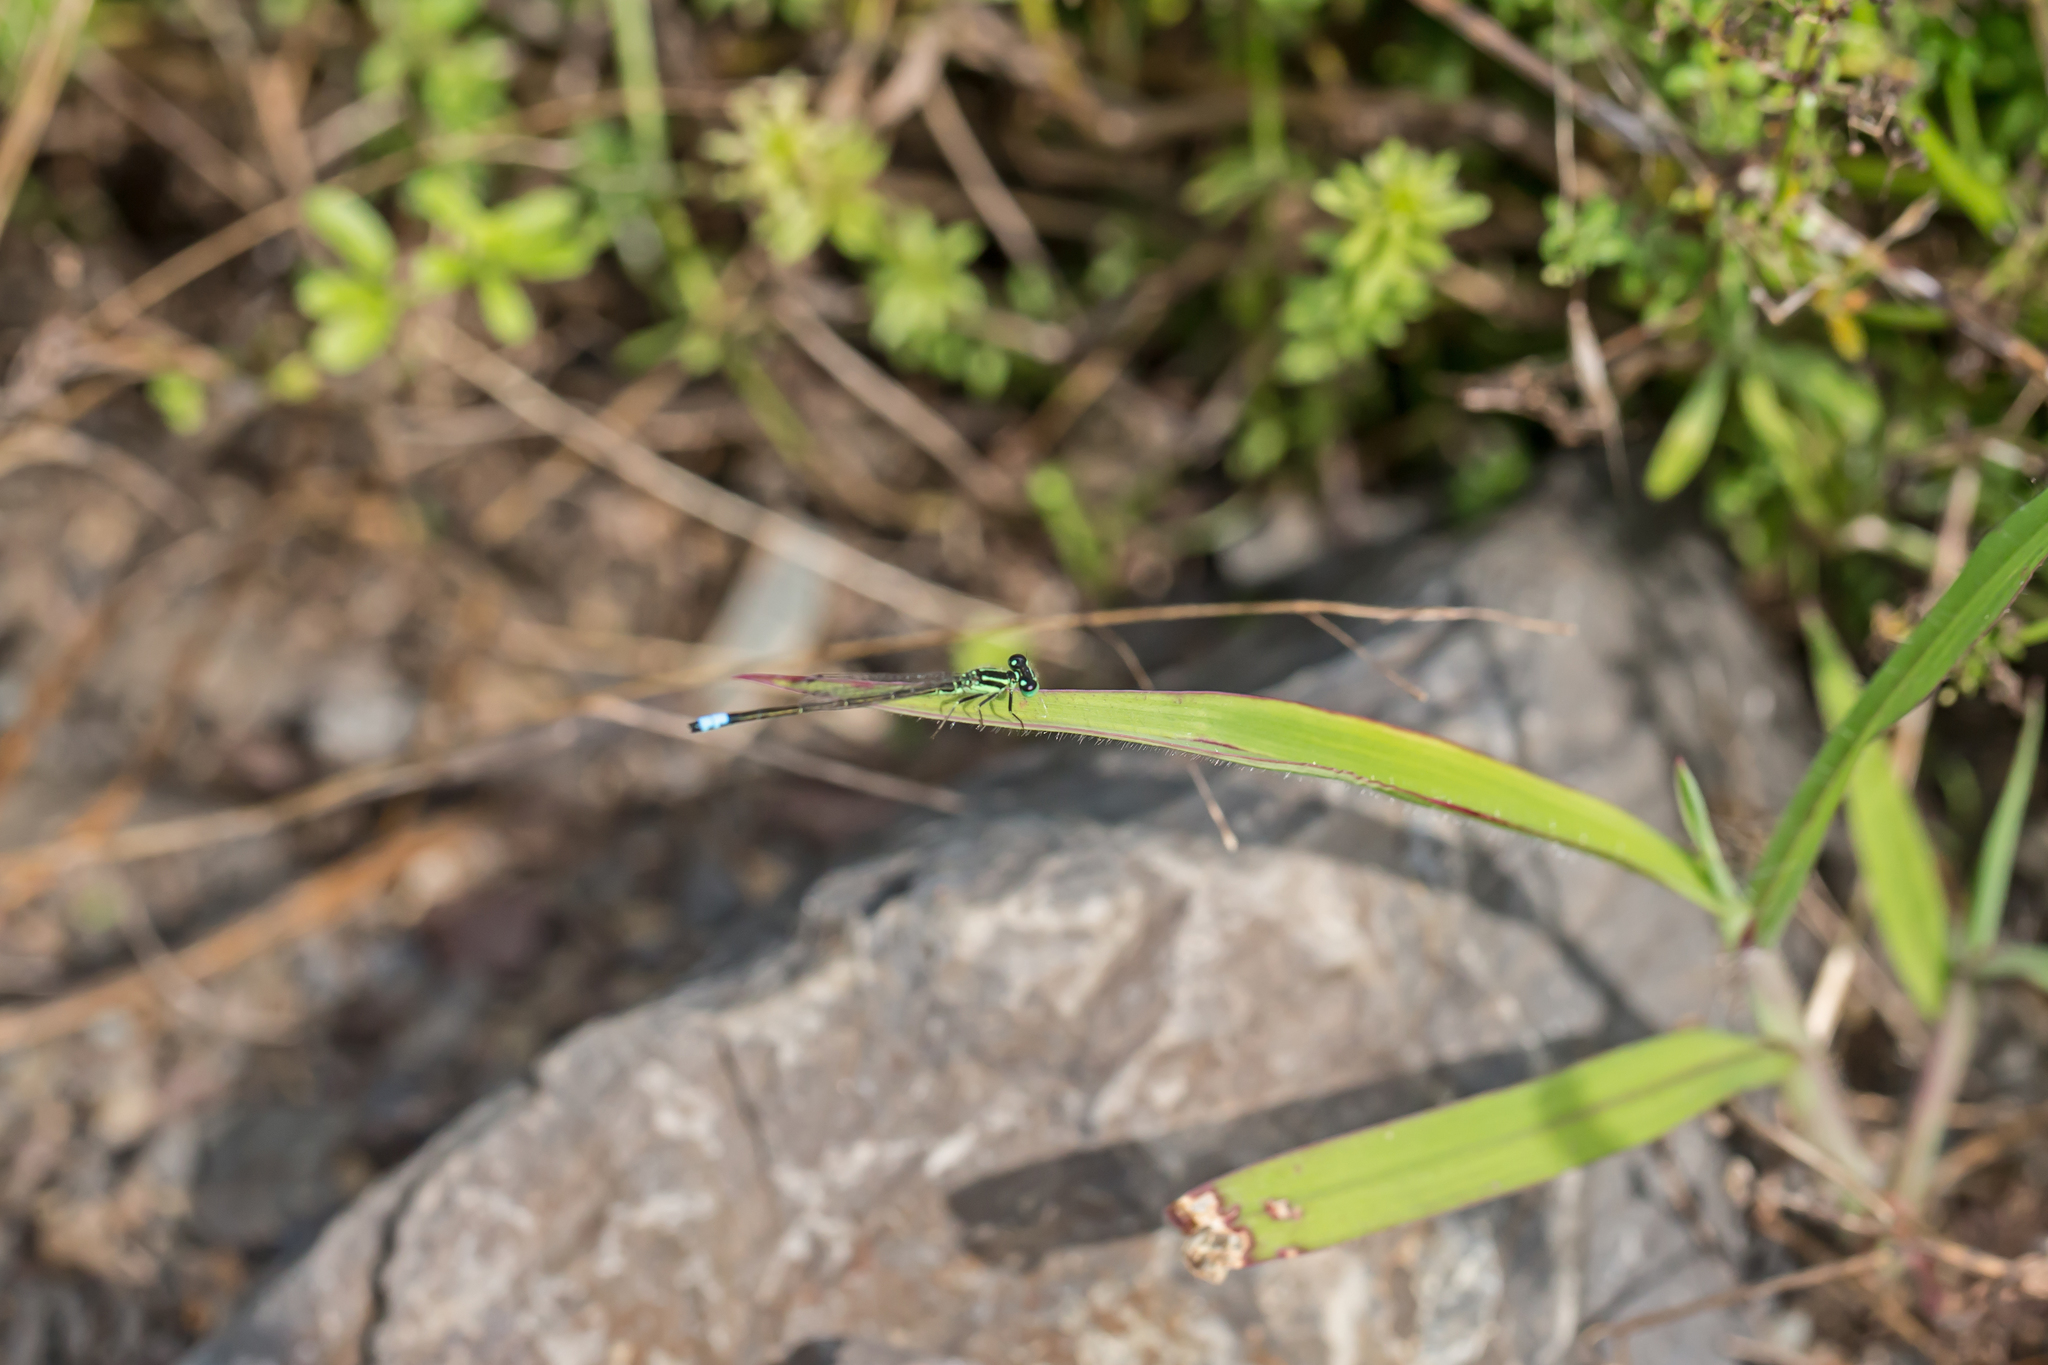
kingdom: Animalia
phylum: Arthropoda
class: Insecta
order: Odonata
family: Coenagrionidae
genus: Ischnura
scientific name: Ischnura verticalis
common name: Eastern forktail
